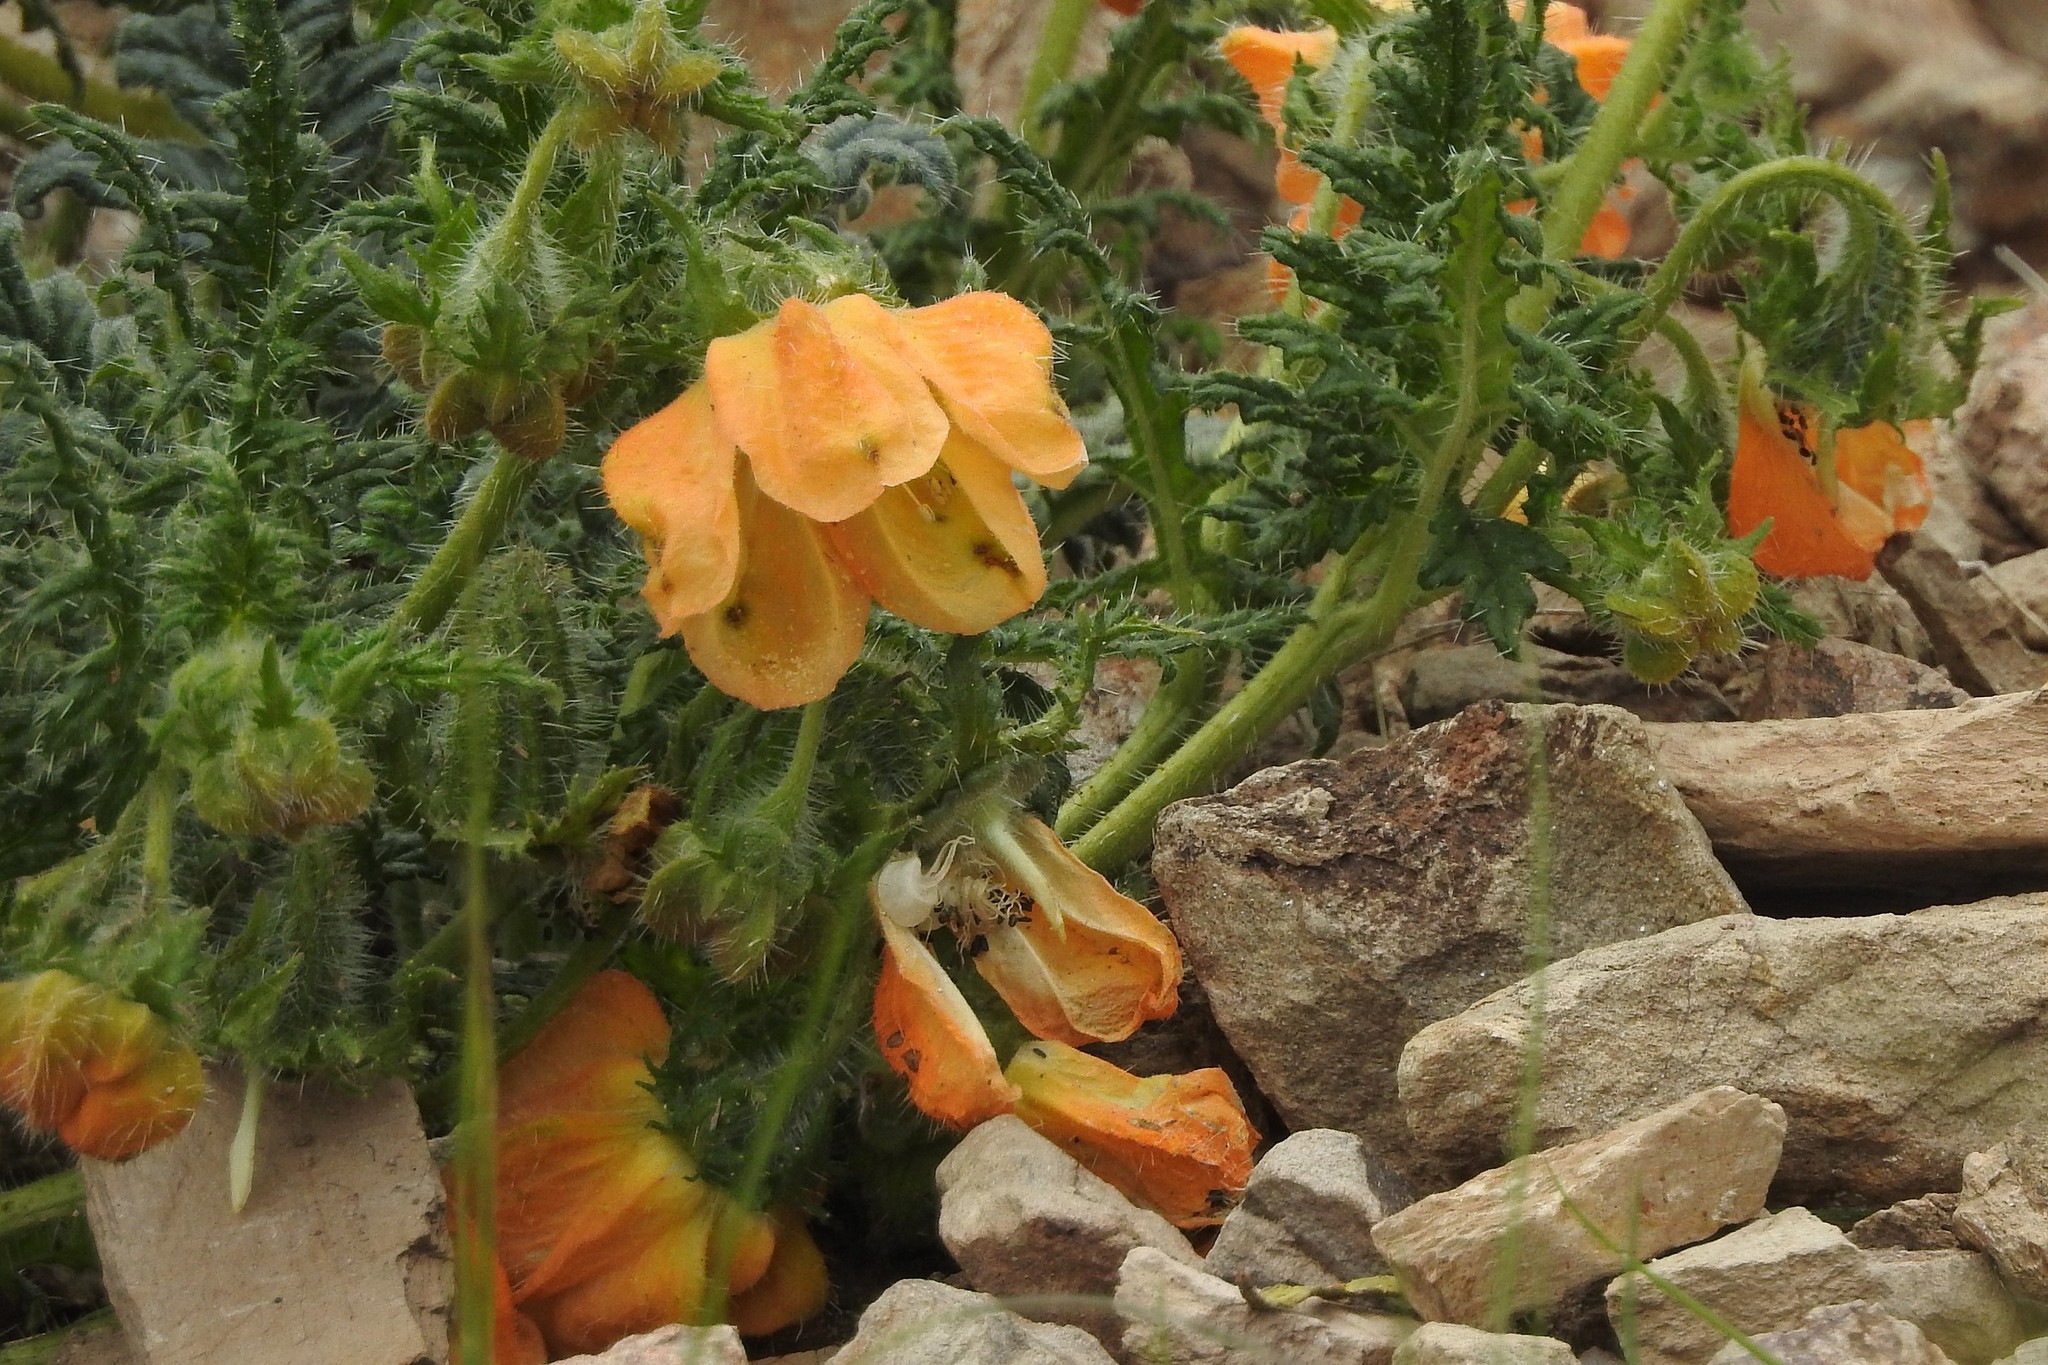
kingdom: Plantae
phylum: Tracheophyta
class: Magnoliopsida
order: Cornales
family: Loasaceae
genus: Caiophora
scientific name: Caiophora chuquitensis
